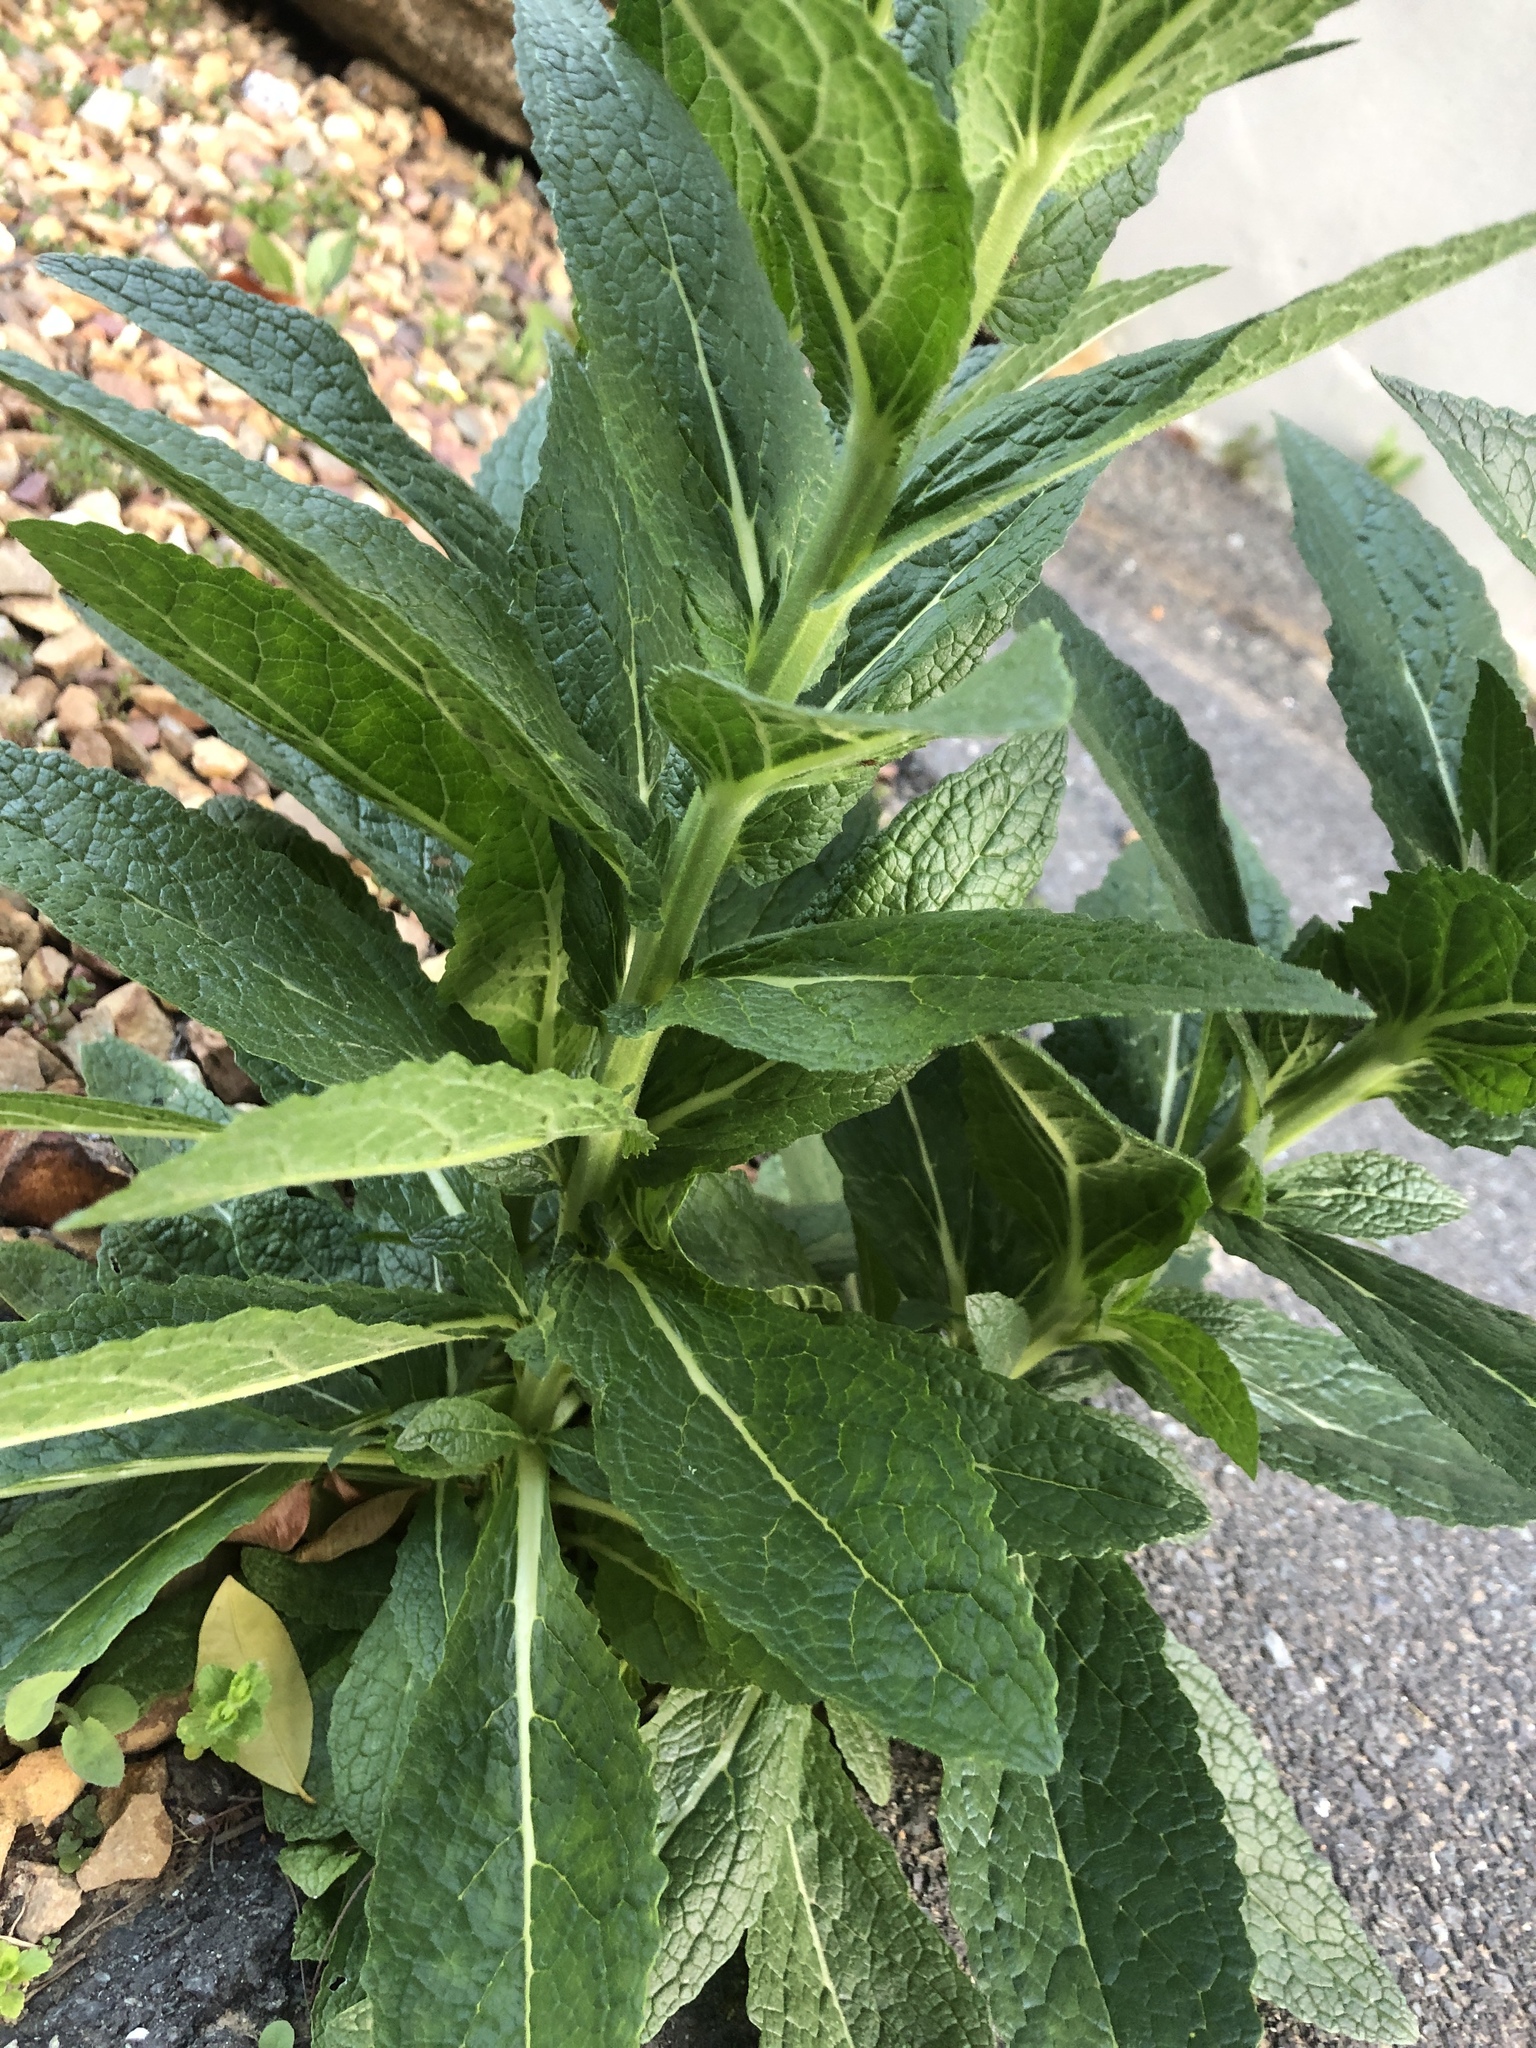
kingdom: Plantae
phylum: Tracheophyta
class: Magnoliopsida
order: Lamiales
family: Scrophulariaceae
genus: Verbascum
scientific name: Verbascum virgatum
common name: Twiggy mullein
